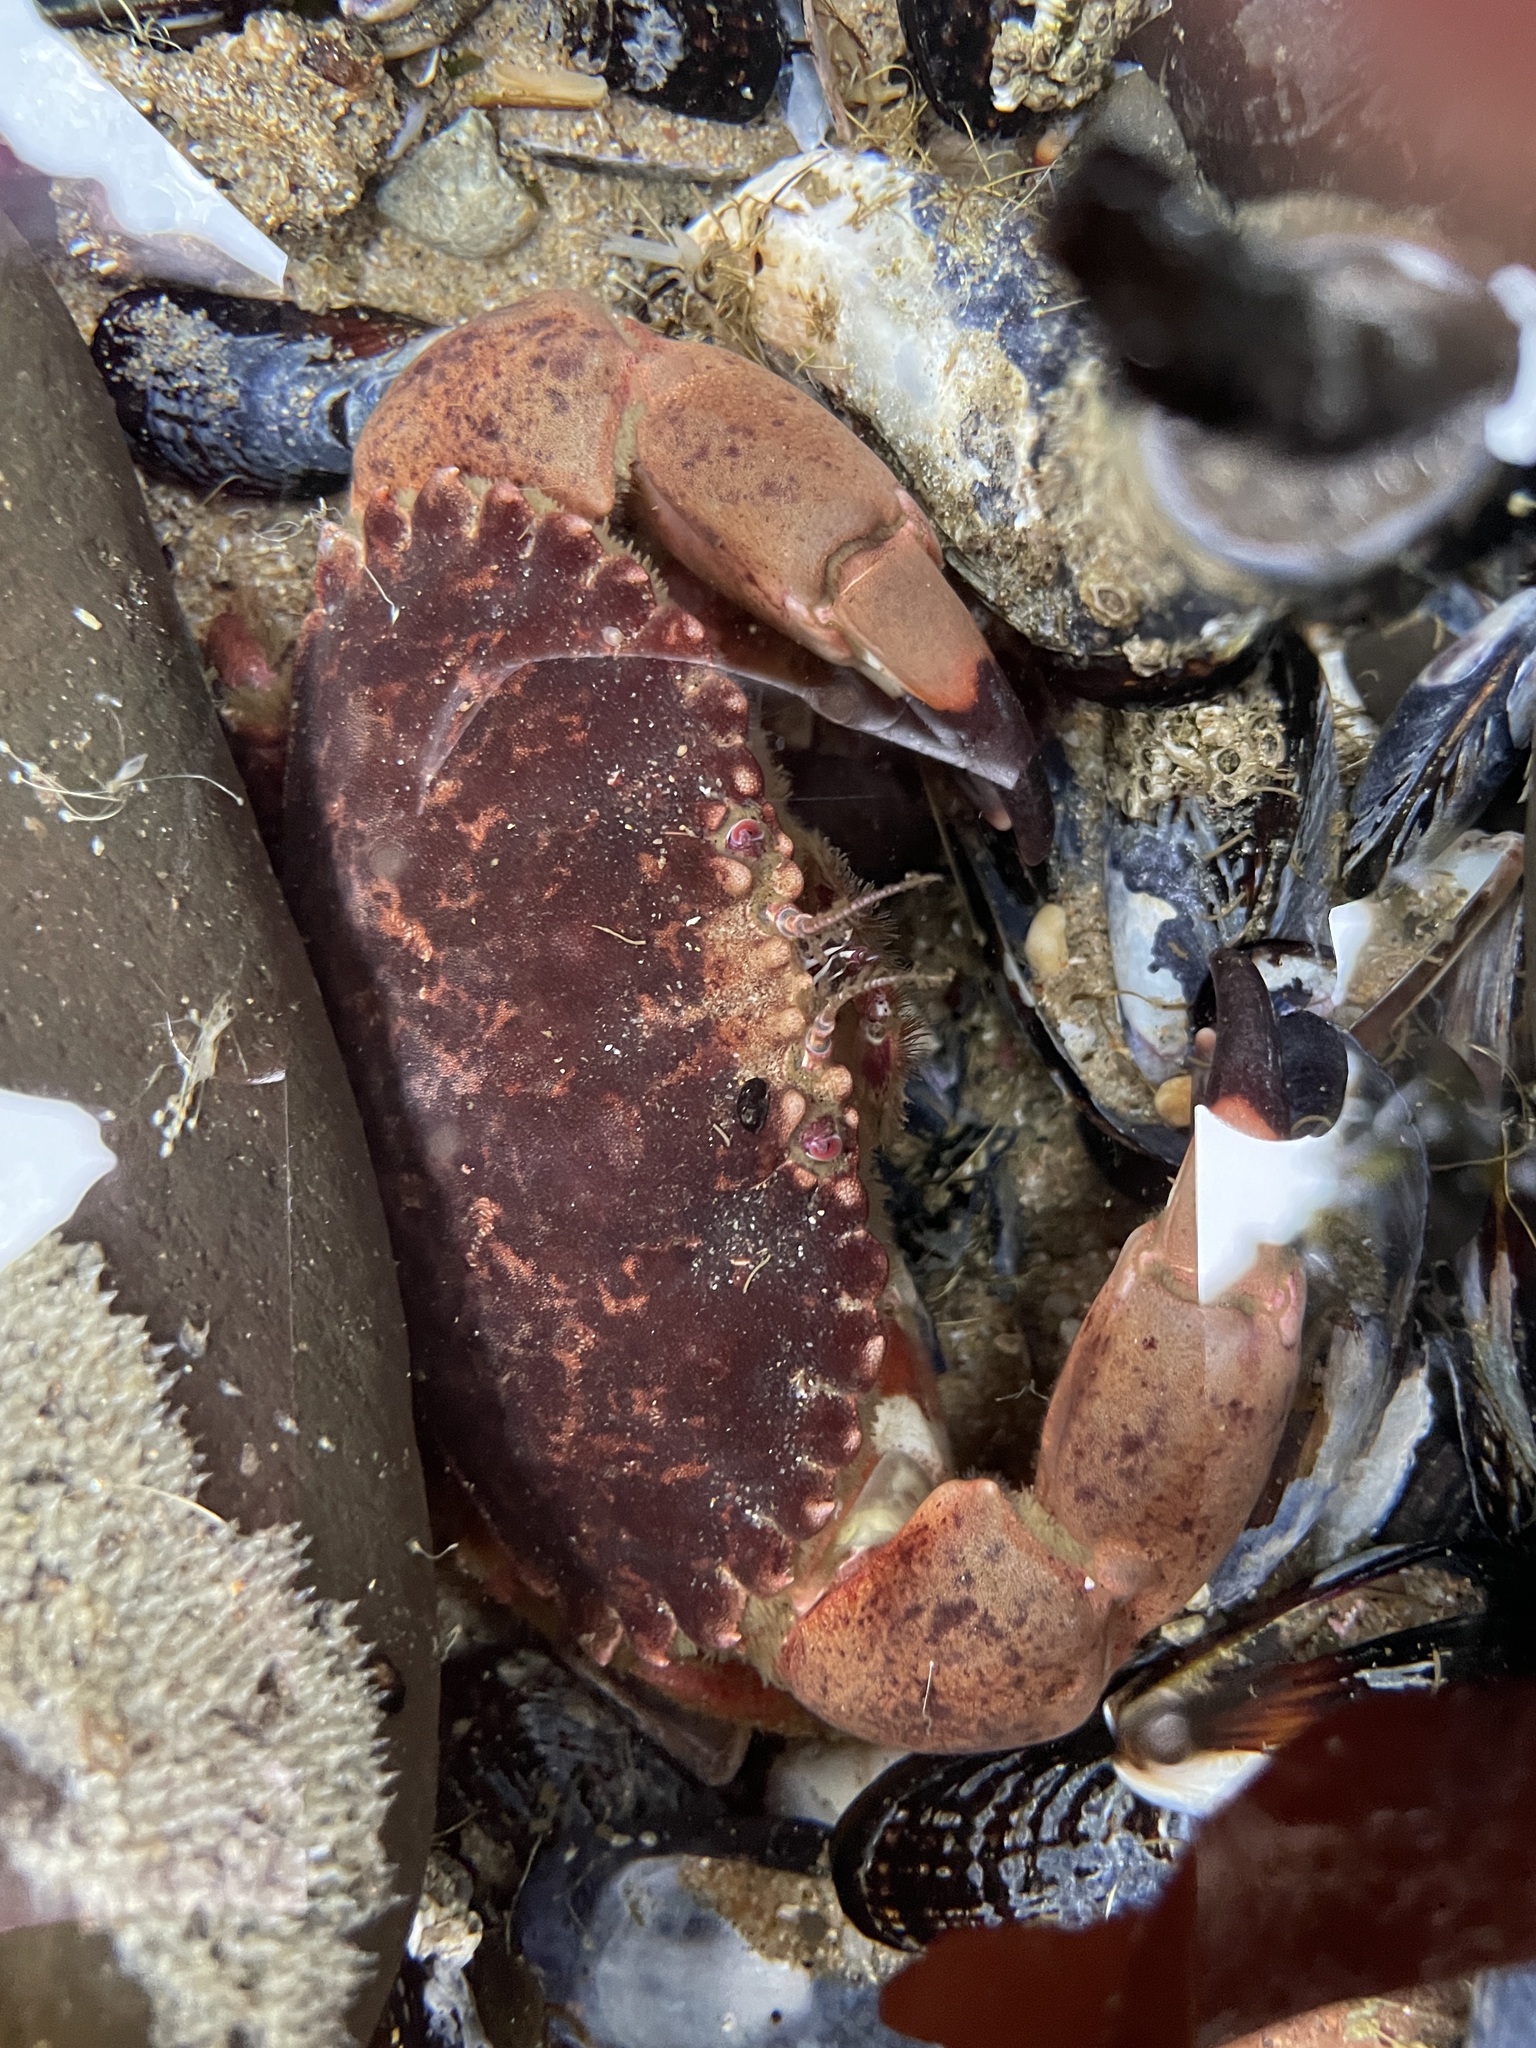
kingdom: Animalia
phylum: Arthropoda
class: Malacostraca
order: Decapoda
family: Cancridae
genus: Romaleon
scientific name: Romaleon antennarium
